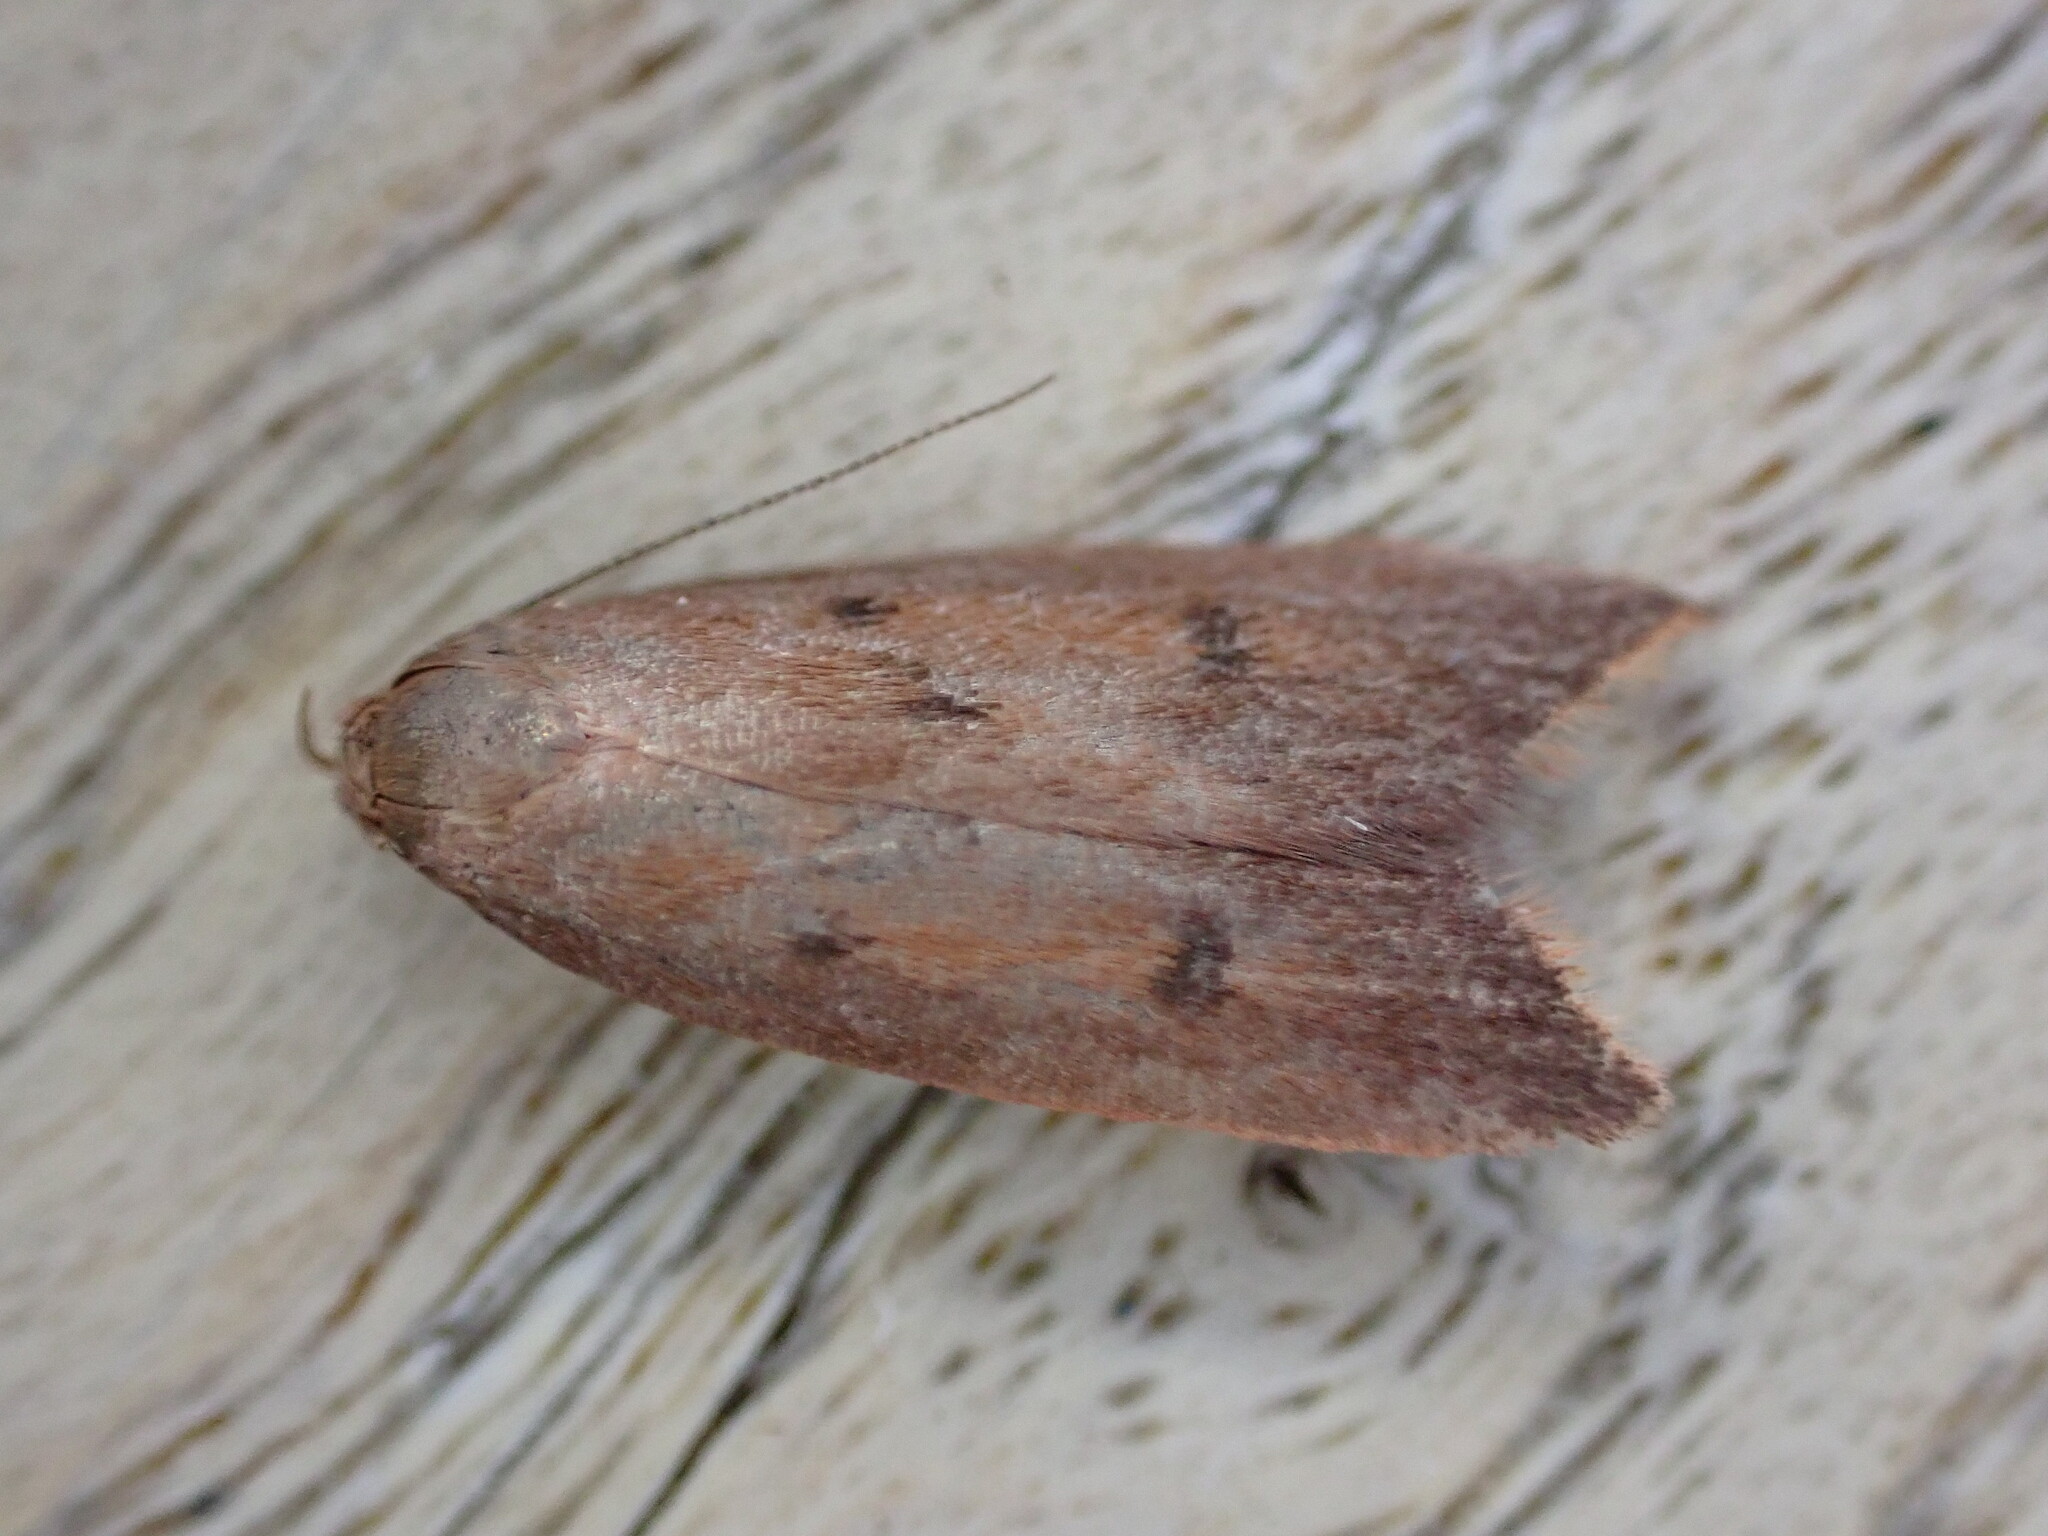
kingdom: Animalia
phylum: Arthropoda
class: Insecta
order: Lepidoptera
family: Oecophoridae
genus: Tachystola
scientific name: Tachystola acroxantha
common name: Ruddy streak
